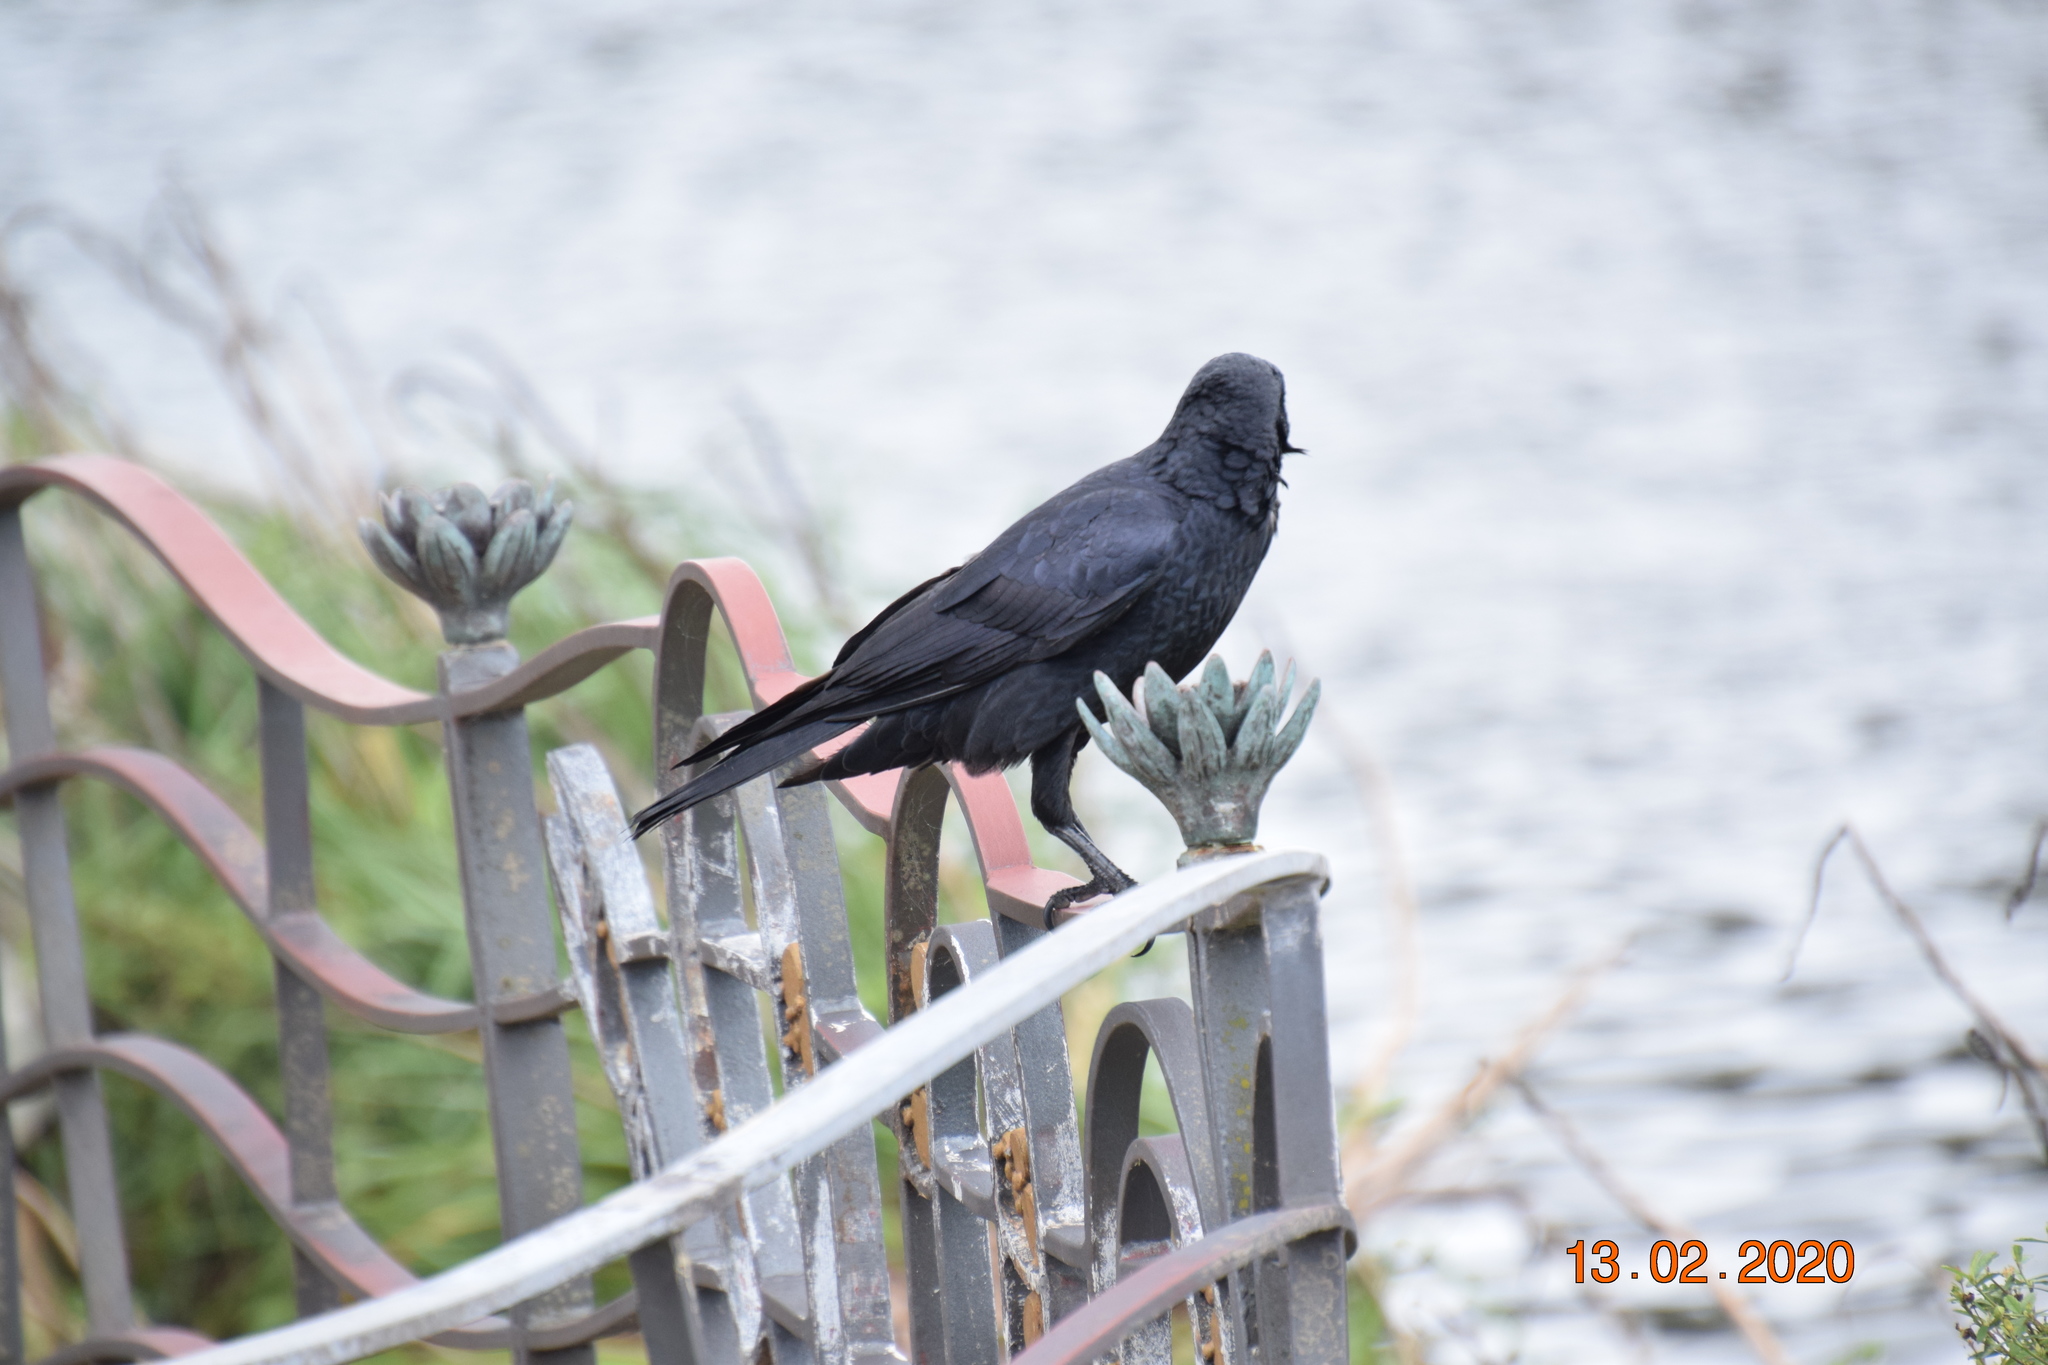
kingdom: Animalia
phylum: Chordata
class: Aves
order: Passeriformes
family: Corvidae
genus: Corvus
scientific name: Corvus coronoides
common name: Australian raven
